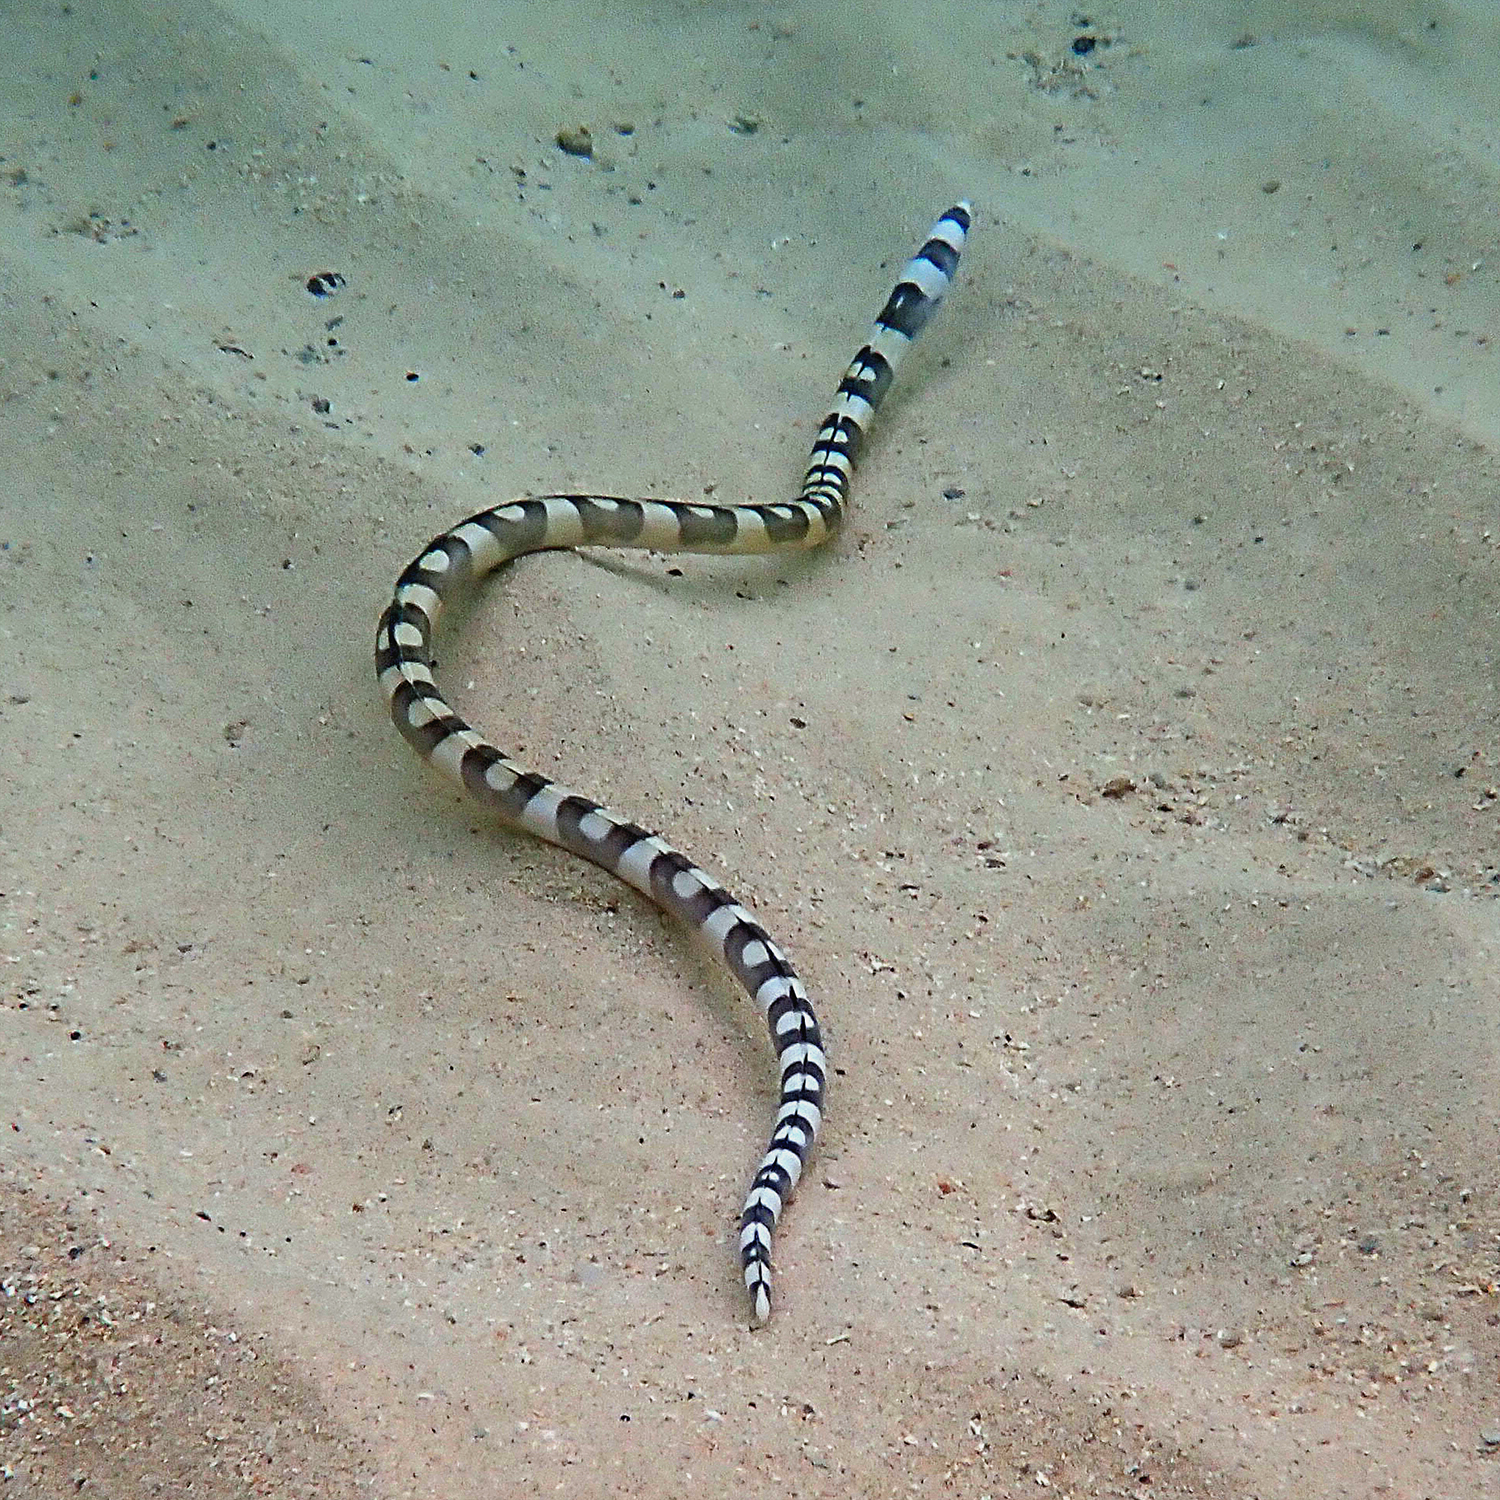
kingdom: Animalia
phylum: Chordata
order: Anguilliformes
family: Ophichthidae
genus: Leiuranus
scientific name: Leiuranus versicolor
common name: Convict snake eel
